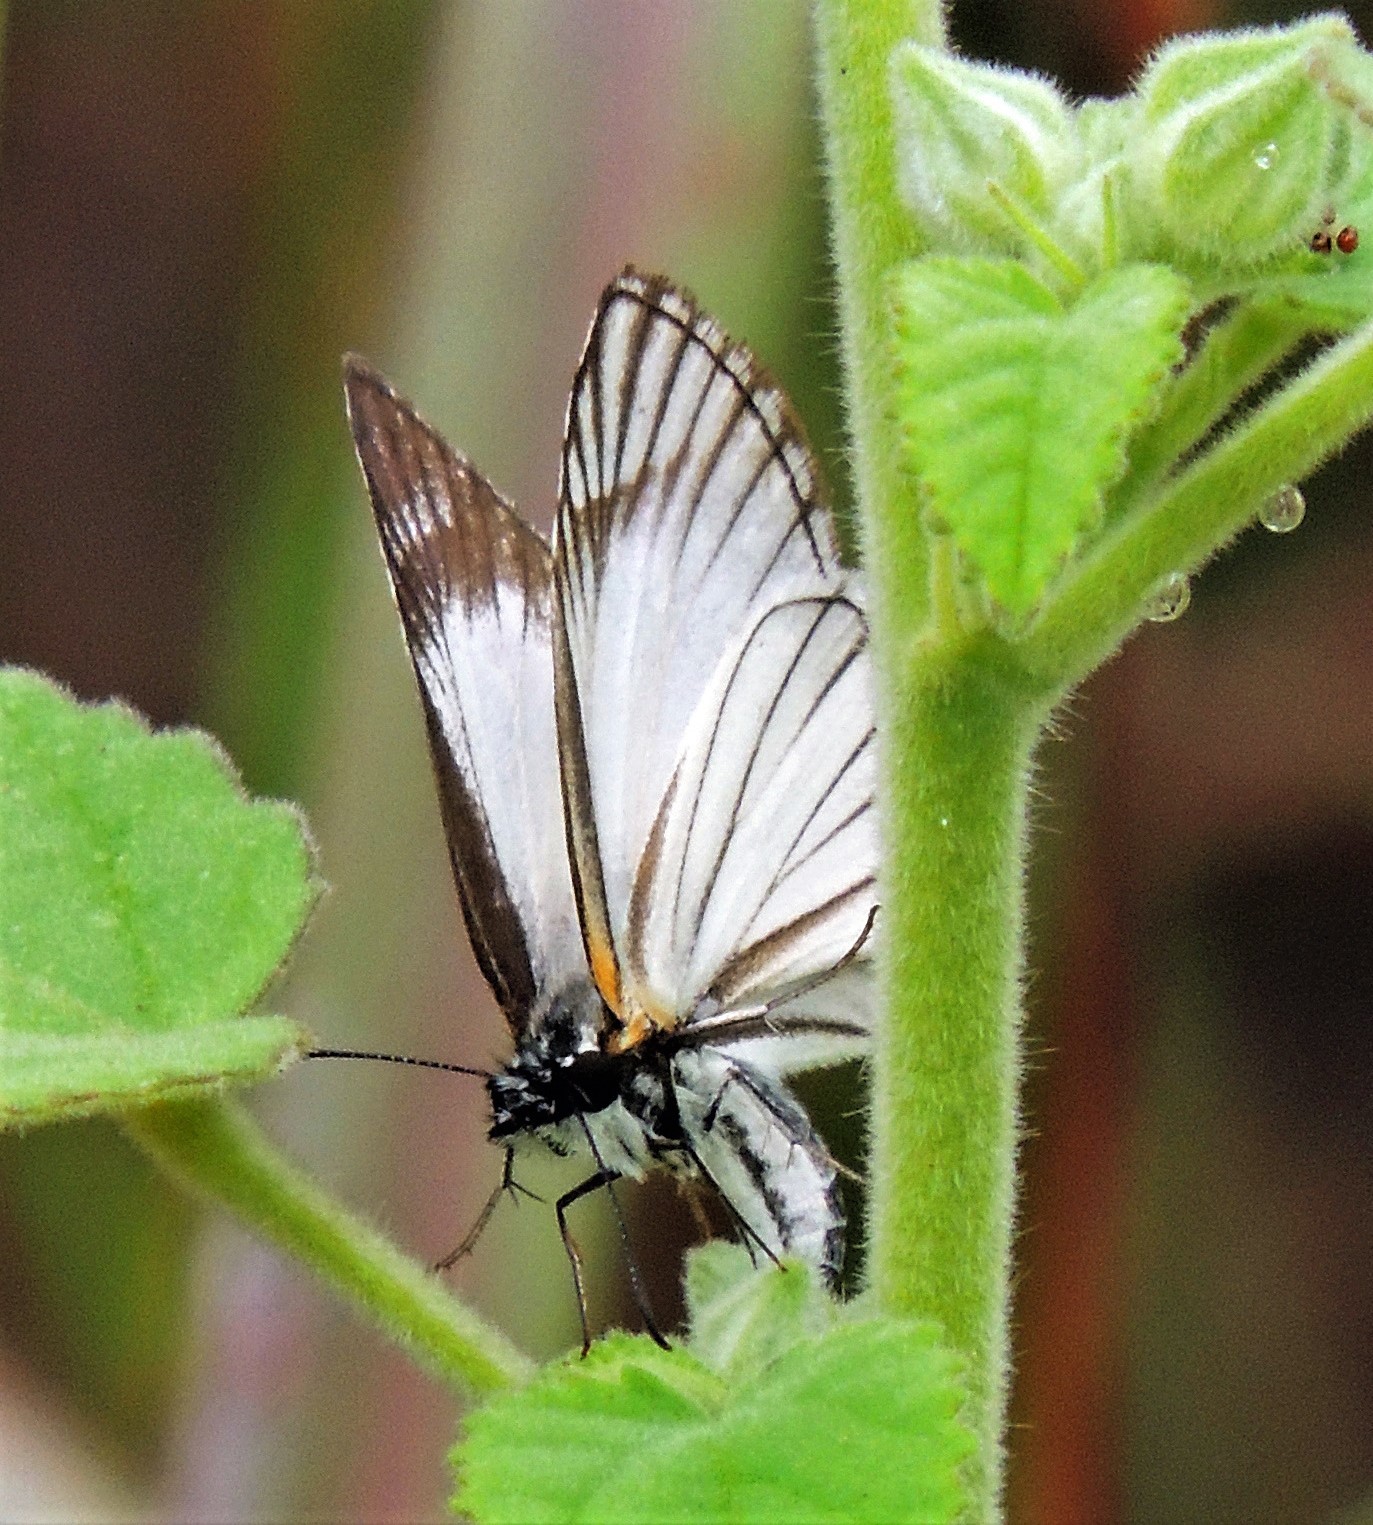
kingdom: Animalia
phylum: Arthropoda
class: Insecta
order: Lepidoptera
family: Hesperiidae
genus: Heliopetes
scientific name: Heliopetes arsalte
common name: Veined white-skipper
